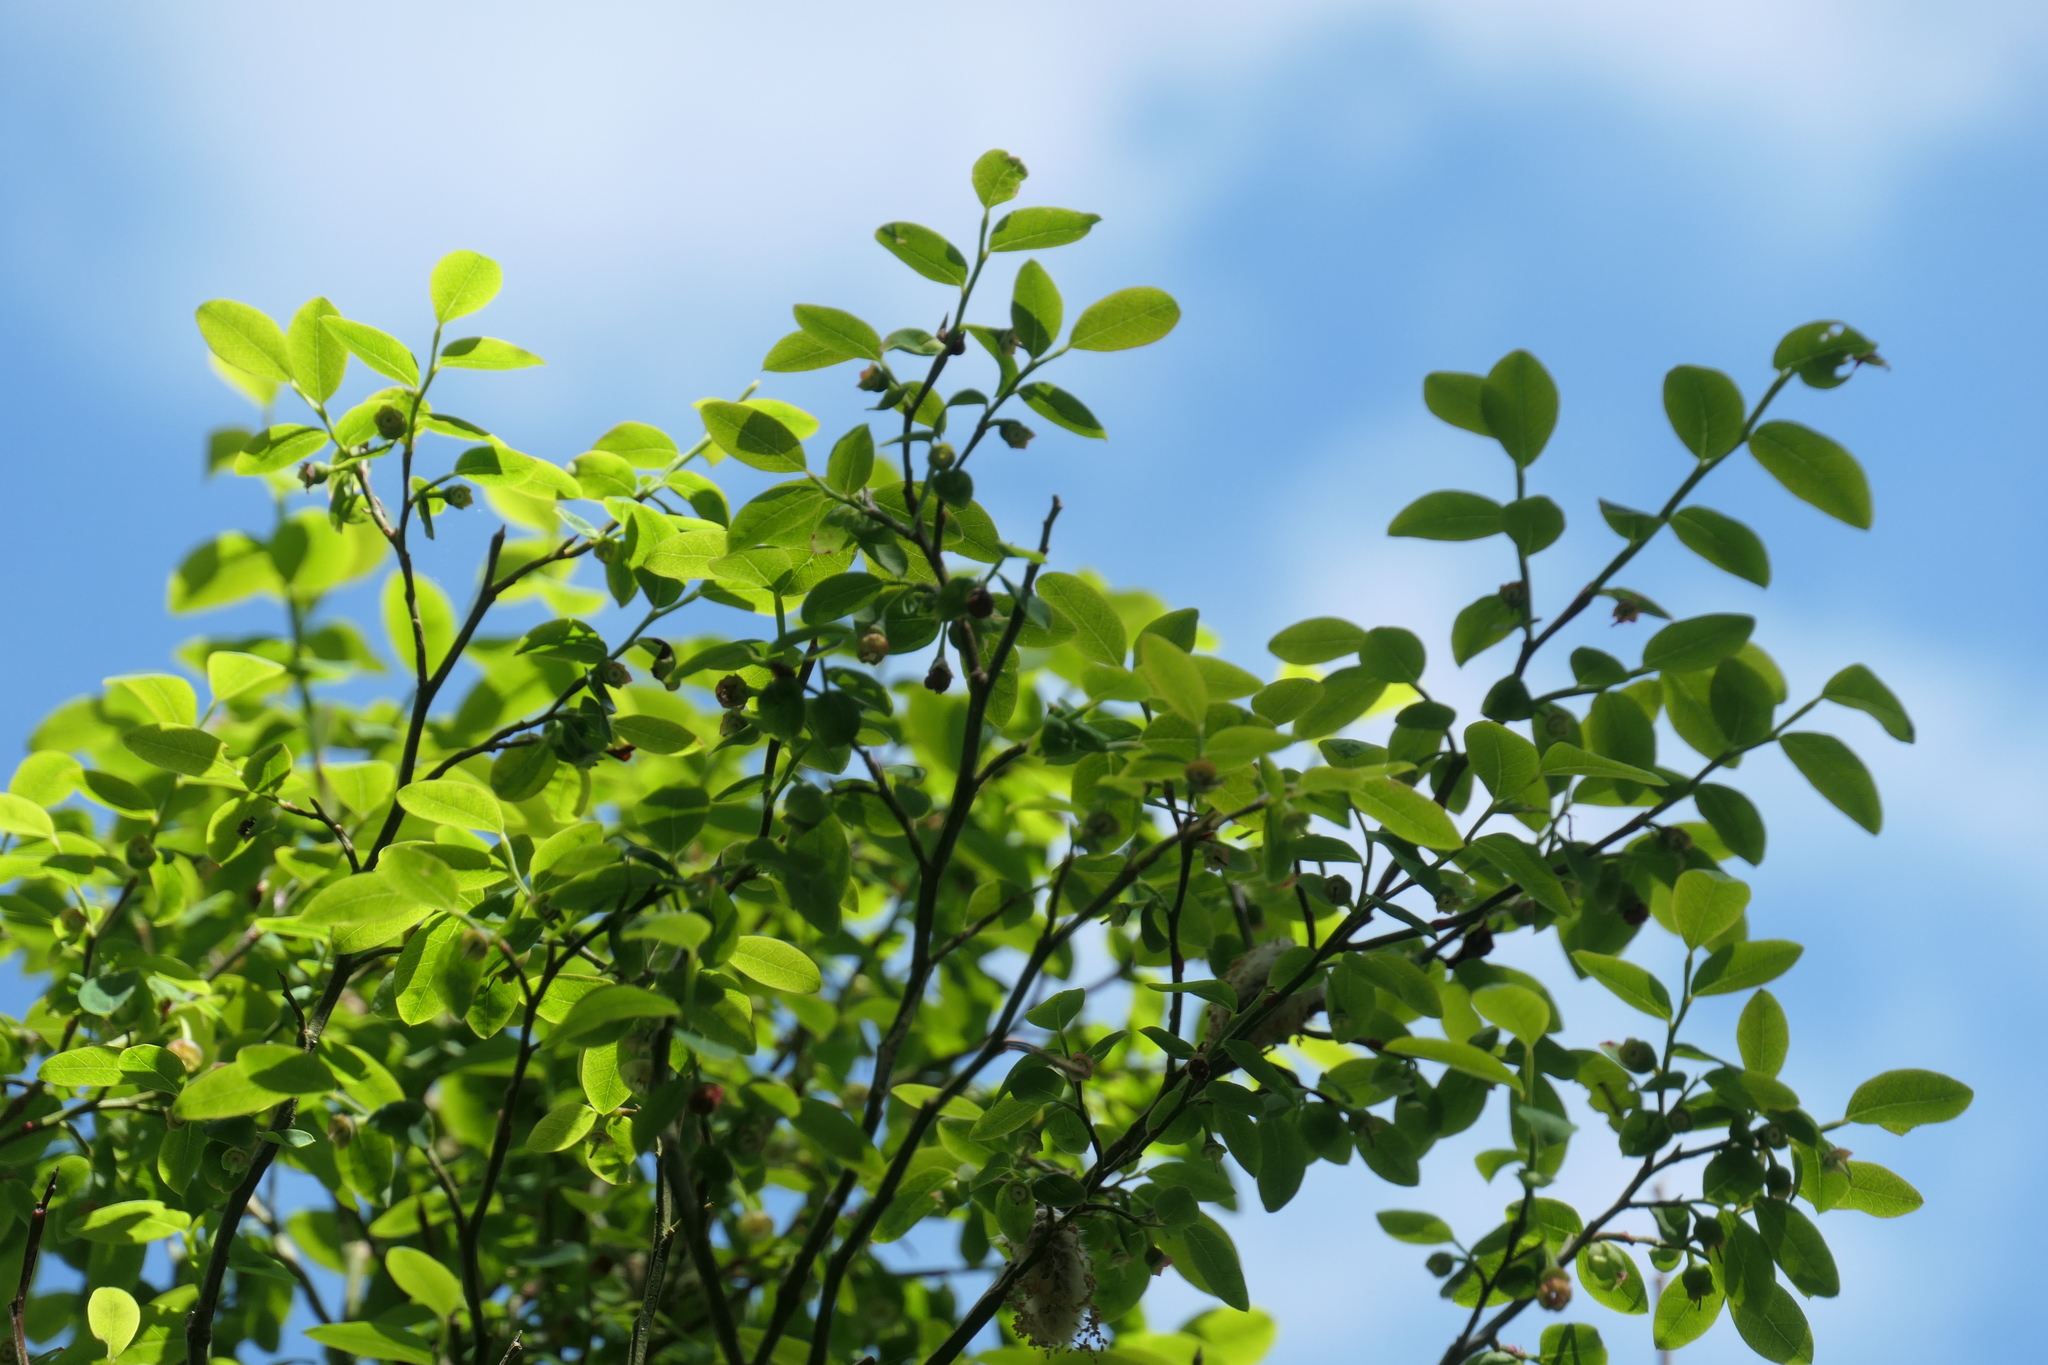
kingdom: Plantae
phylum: Tracheophyta
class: Magnoliopsida
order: Ericales
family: Ericaceae
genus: Vaccinium
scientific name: Vaccinium parvifolium
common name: Red-huckleberry
